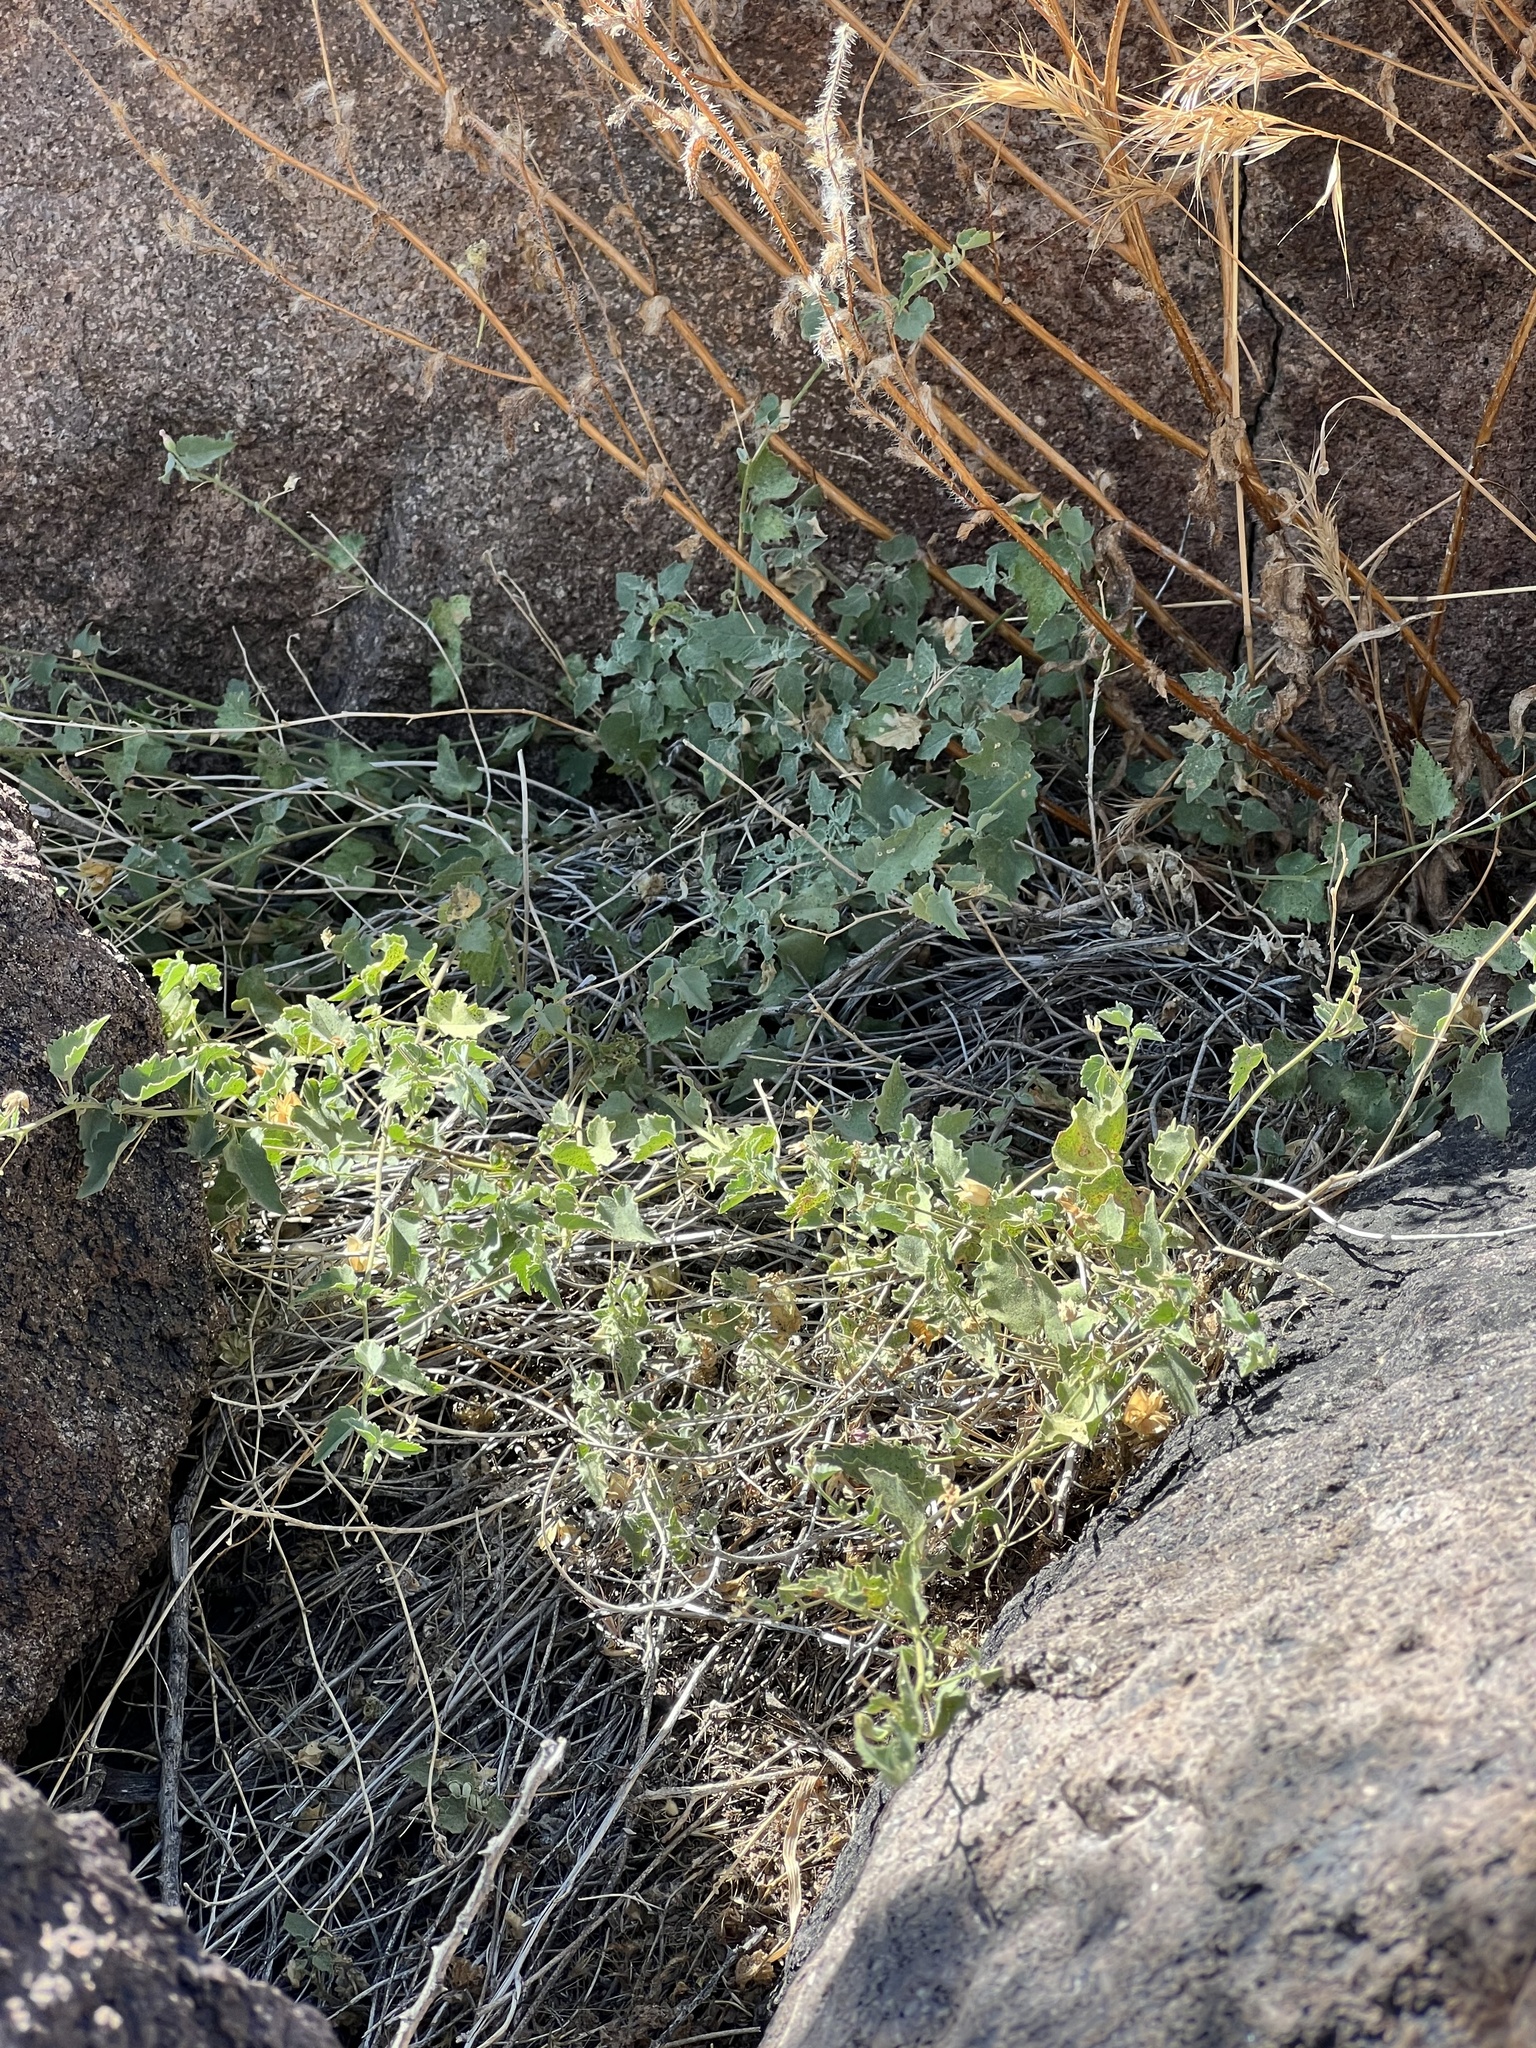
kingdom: Plantae
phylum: Tracheophyta
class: Magnoliopsida
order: Malvales
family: Malvaceae
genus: Abutilon
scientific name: Abutilon parvulum
